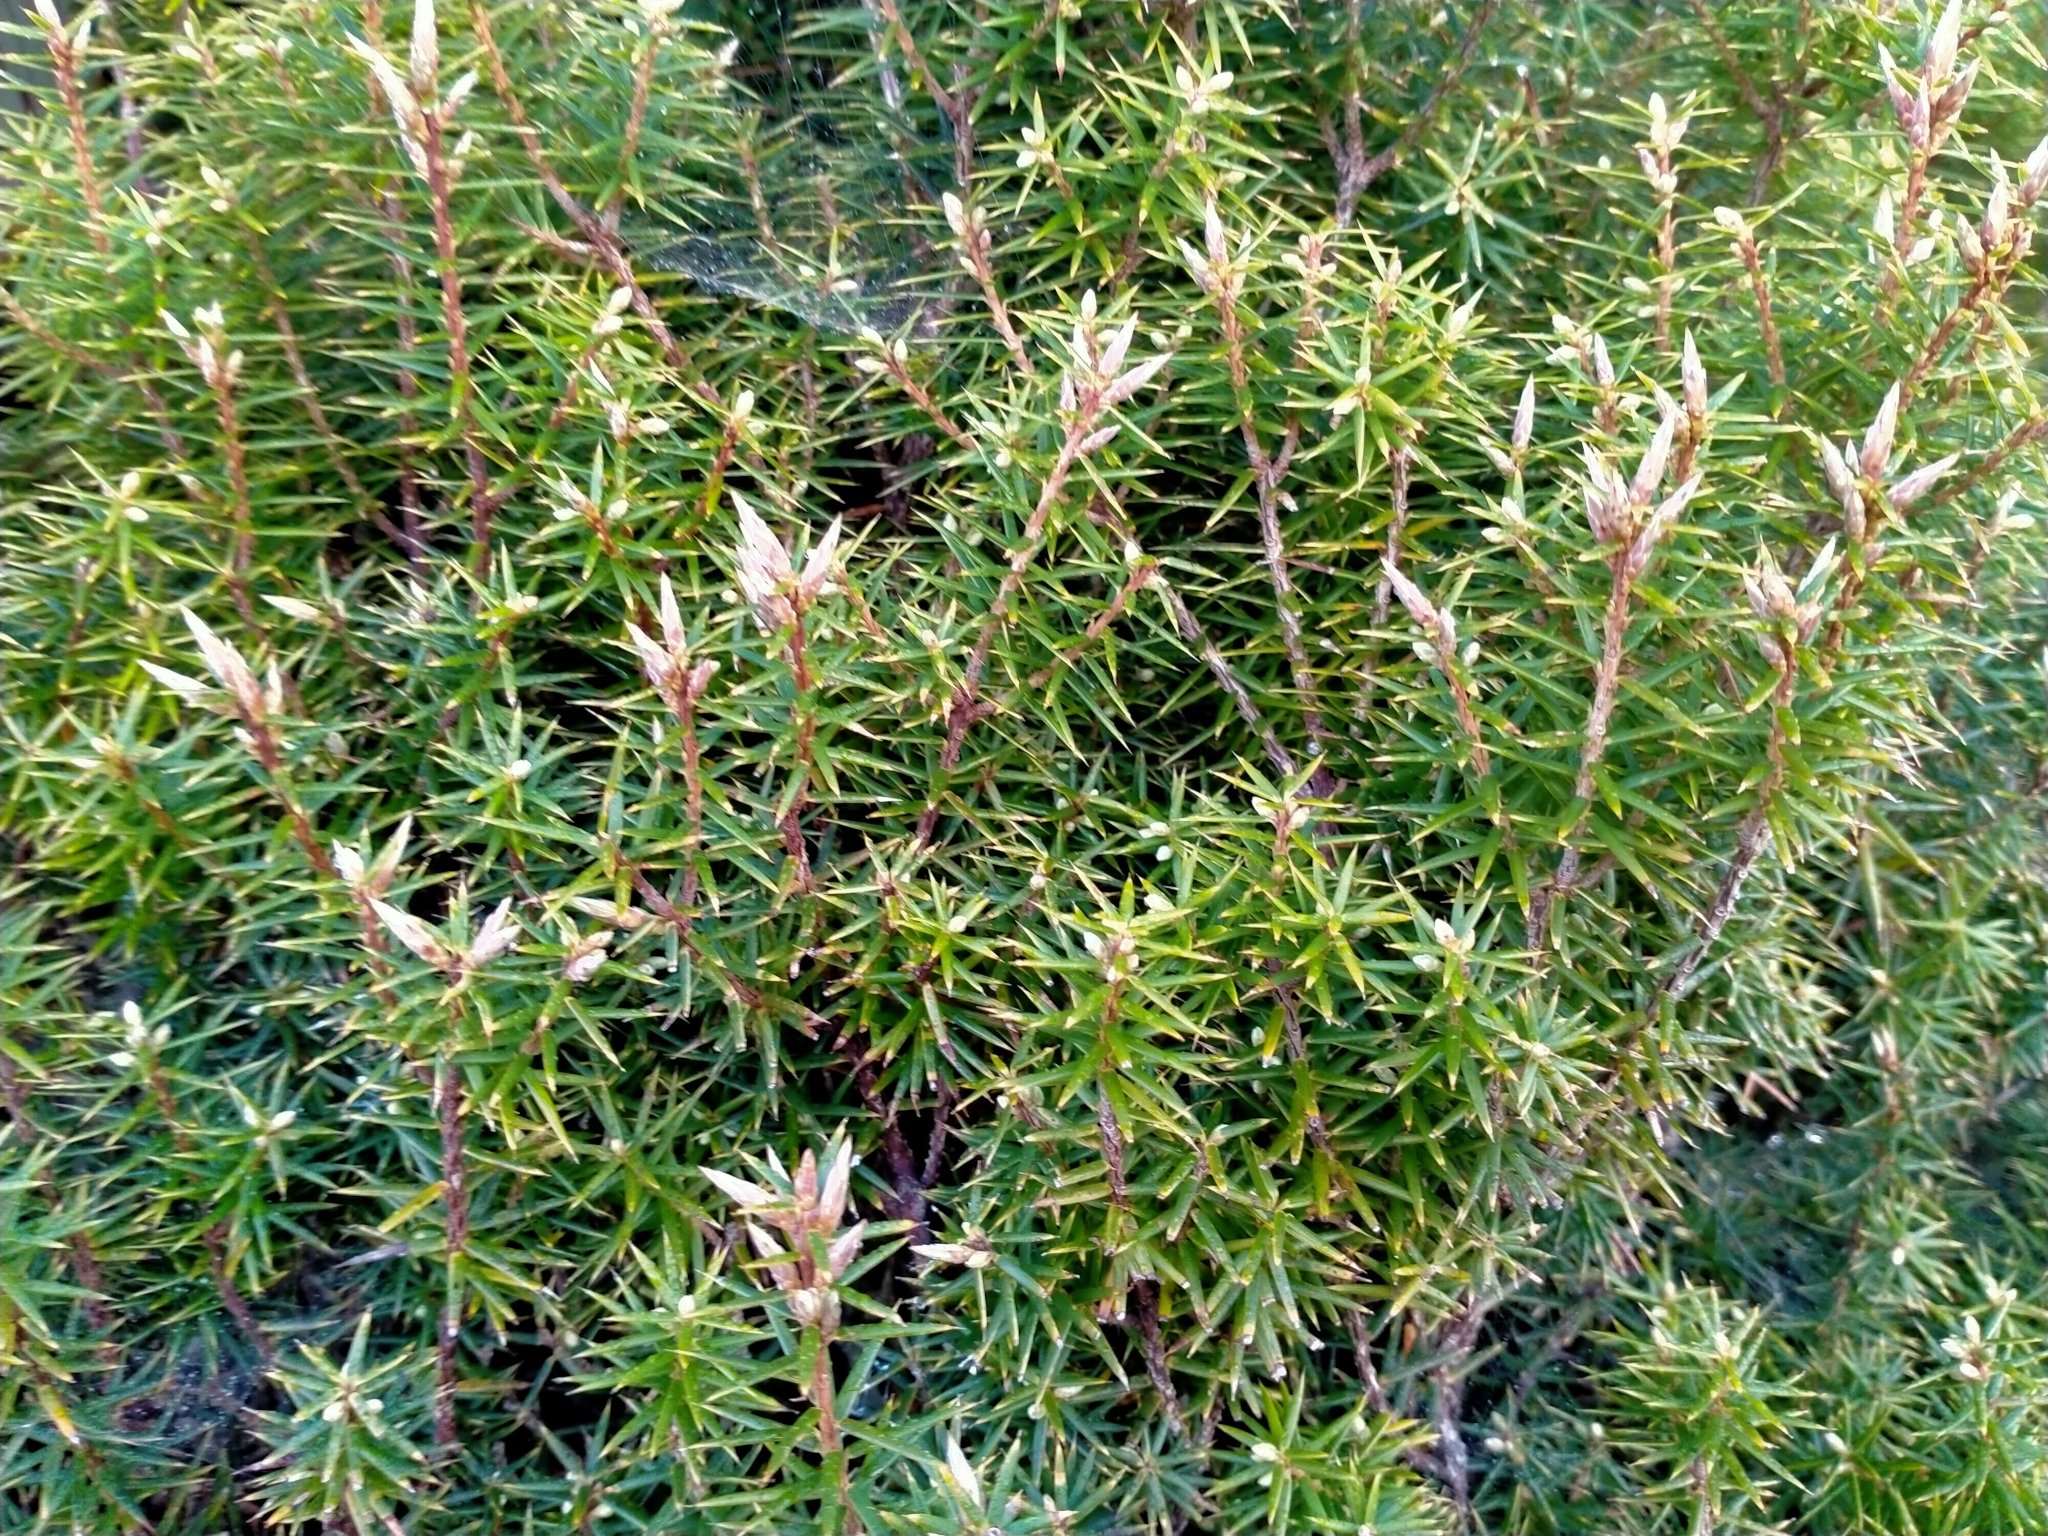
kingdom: Plantae
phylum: Tracheophyta
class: Magnoliopsida
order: Ericales
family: Ericaceae
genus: Leptecophylla
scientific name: Leptecophylla juniperina
